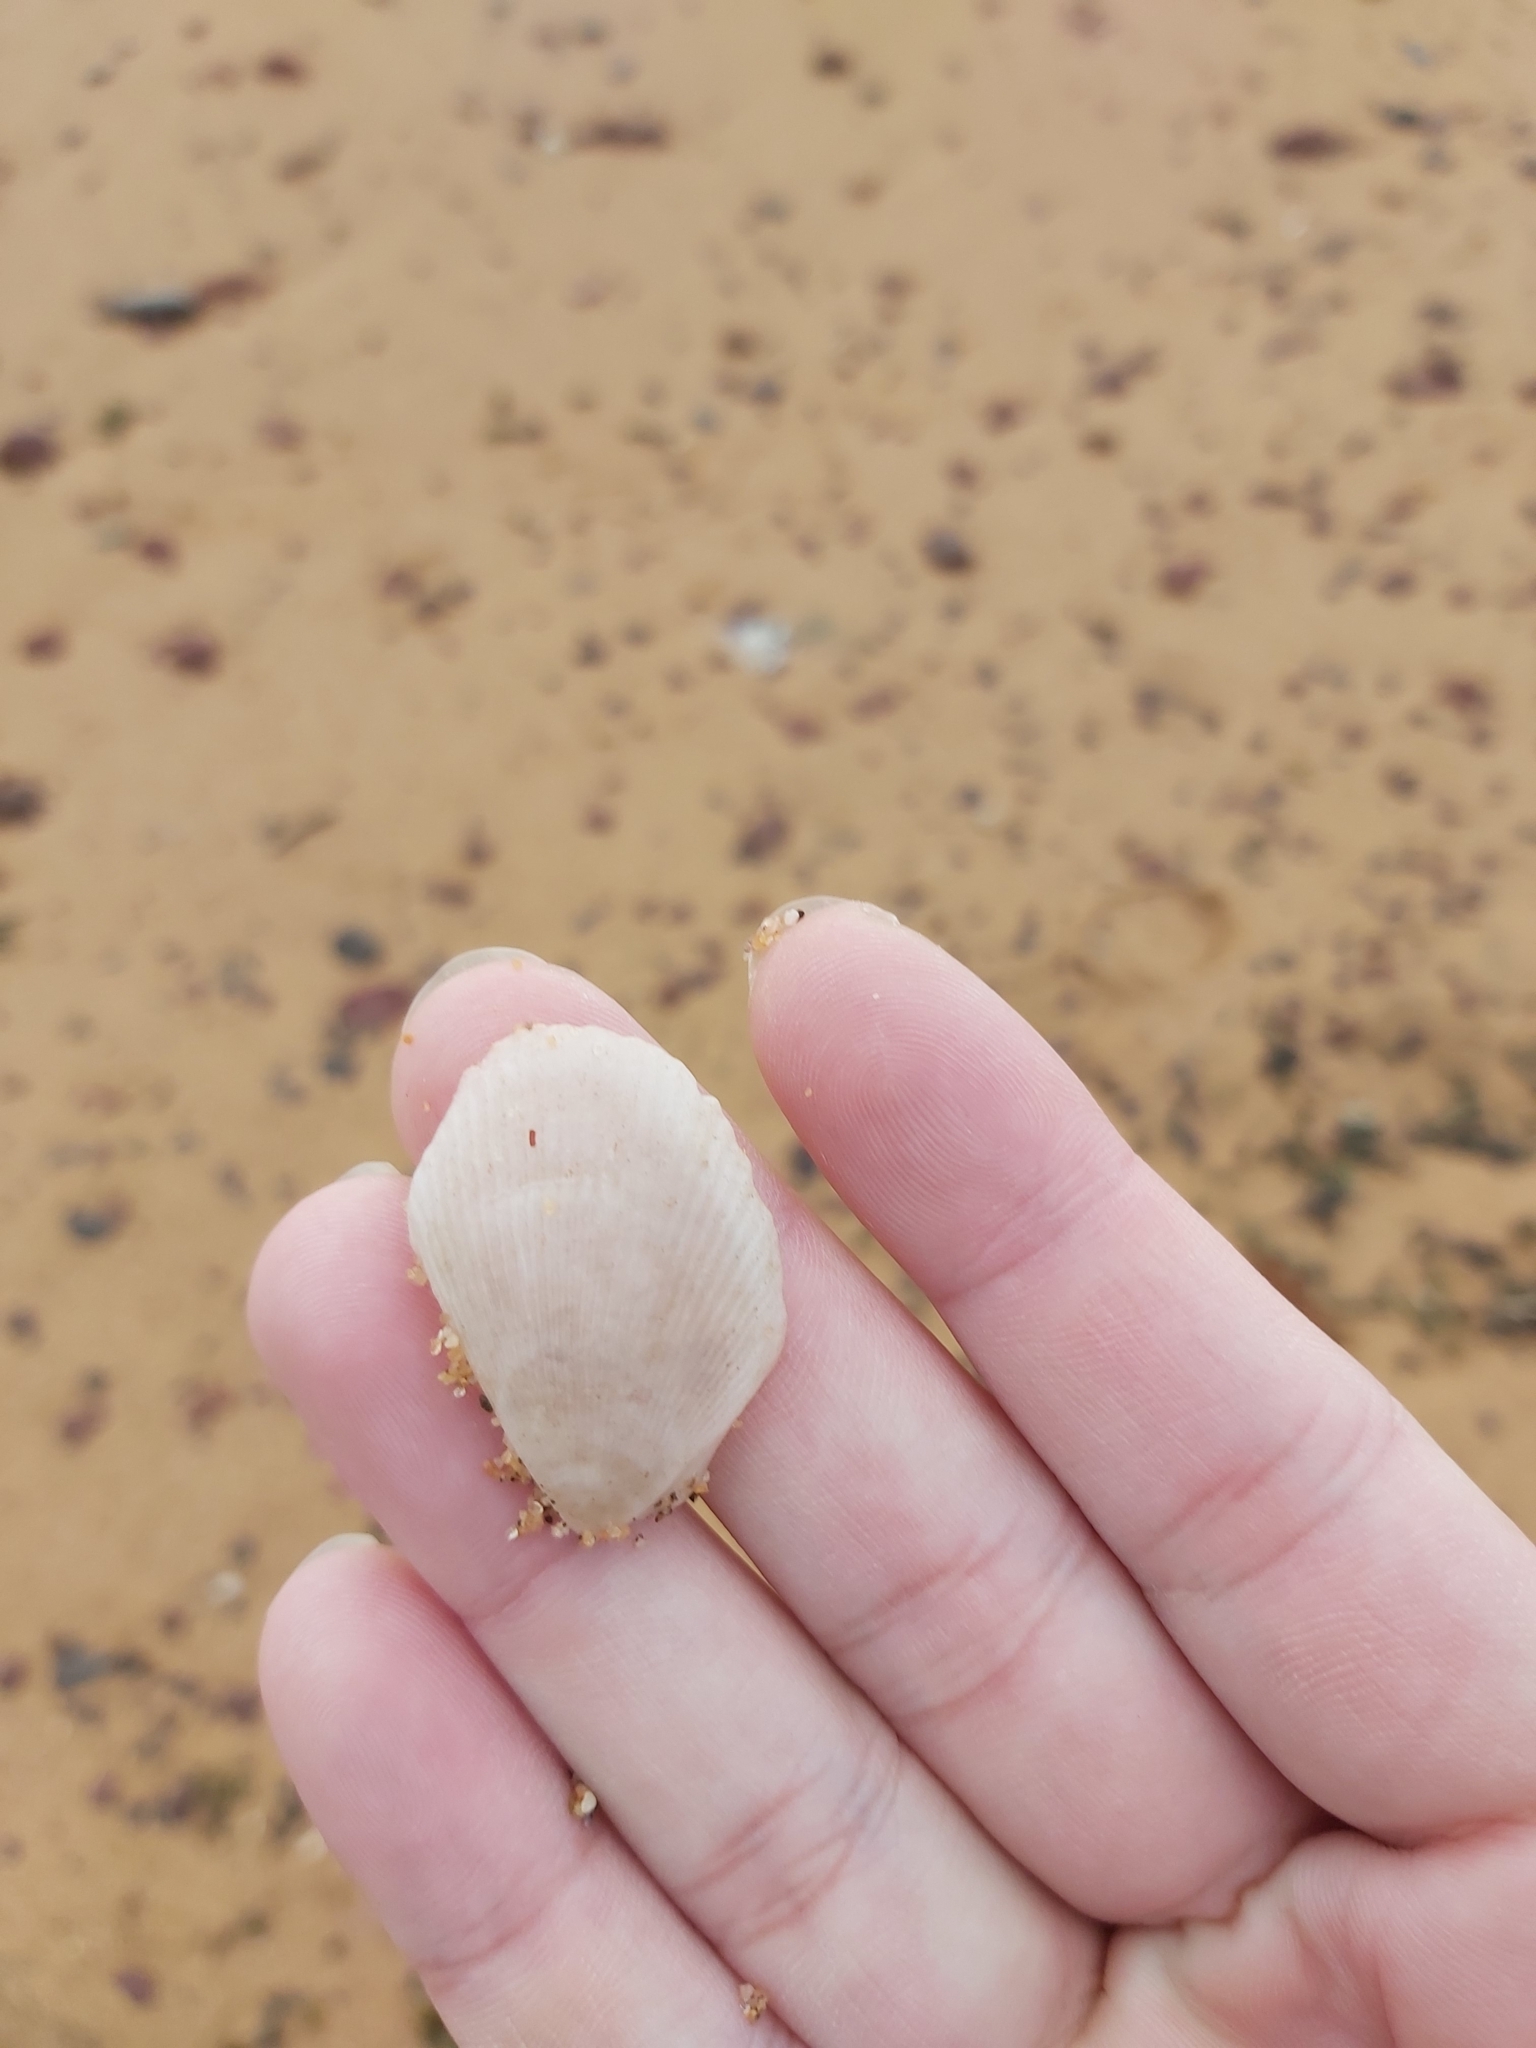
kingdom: Animalia
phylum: Mollusca
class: Bivalvia
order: Limida
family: Limidae
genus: Lima
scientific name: Lima nimbifer
